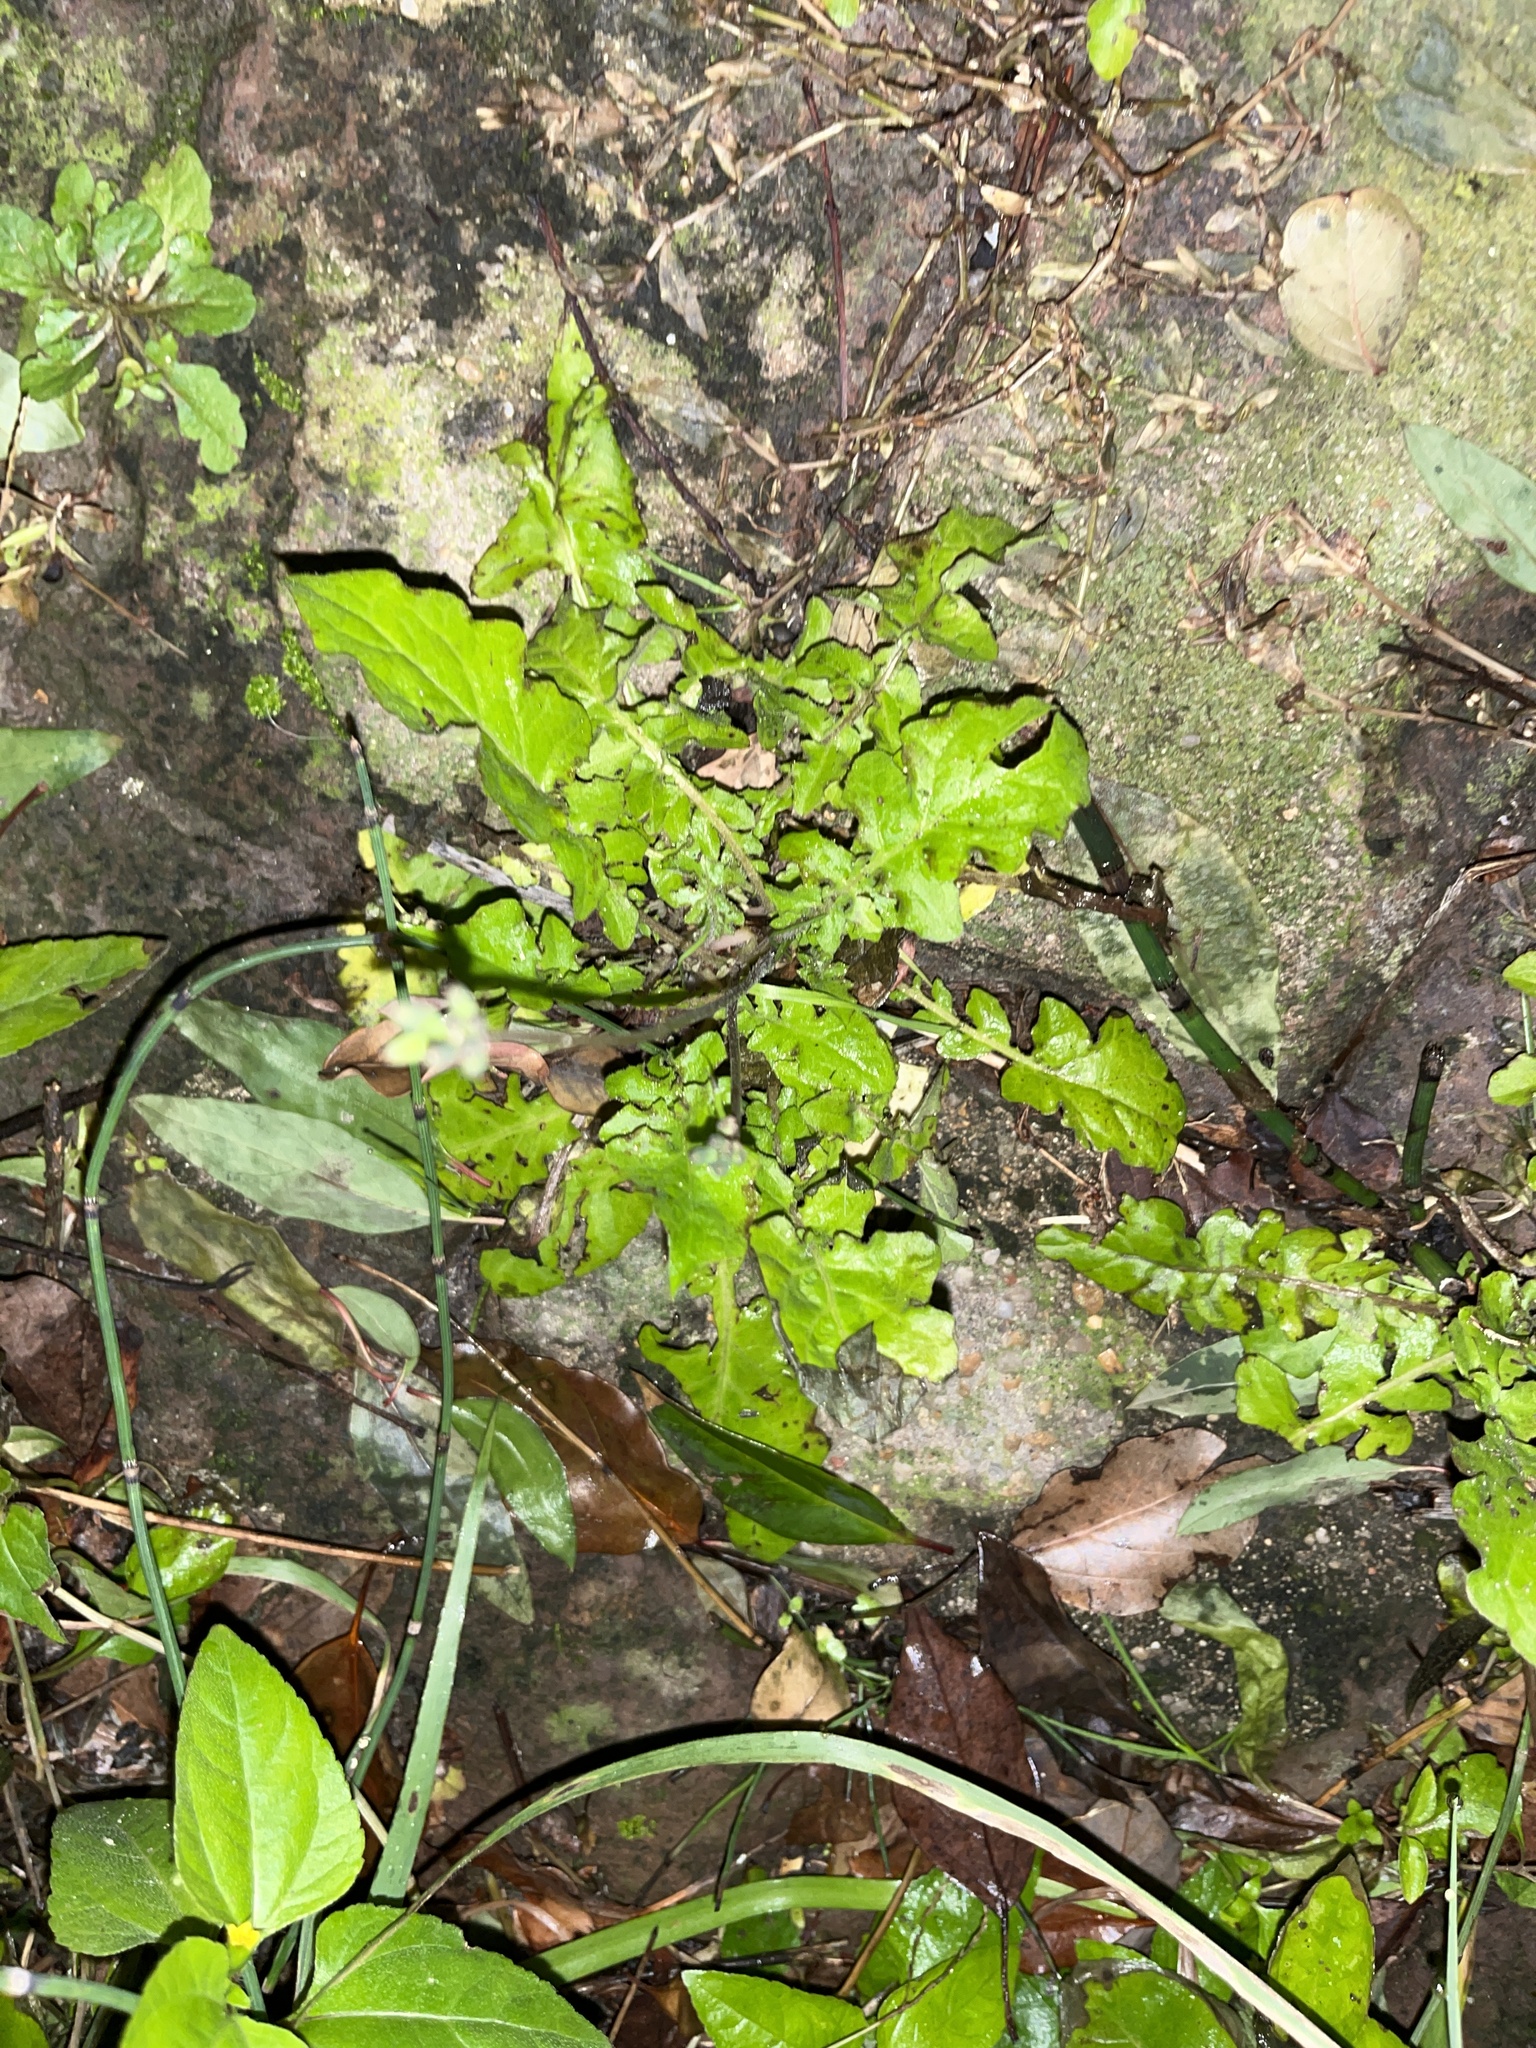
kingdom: Plantae
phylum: Tracheophyta
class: Magnoliopsida
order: Asterales
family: Asteraceae
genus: Youngia
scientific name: Youngia japonica
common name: Oriental false hawksbeard
